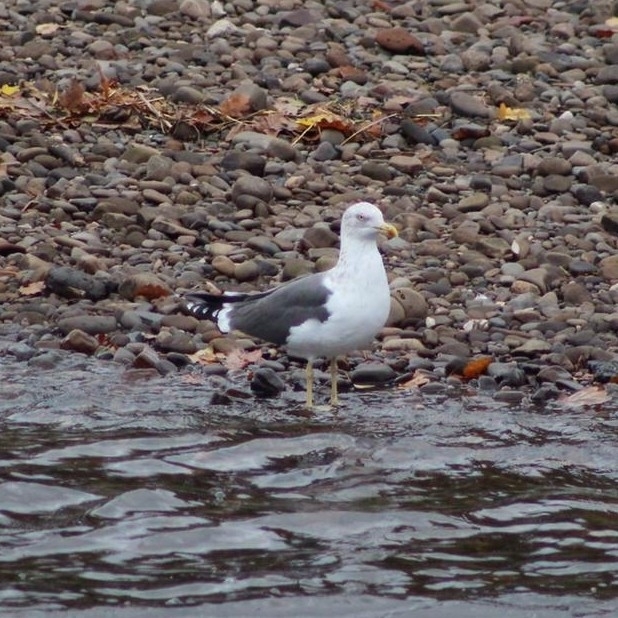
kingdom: Animalia
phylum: Chordata
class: Aves
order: Charadriiformes
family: Laridae
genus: Larus
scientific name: Larus fuscus
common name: Lesser black-backed gull
